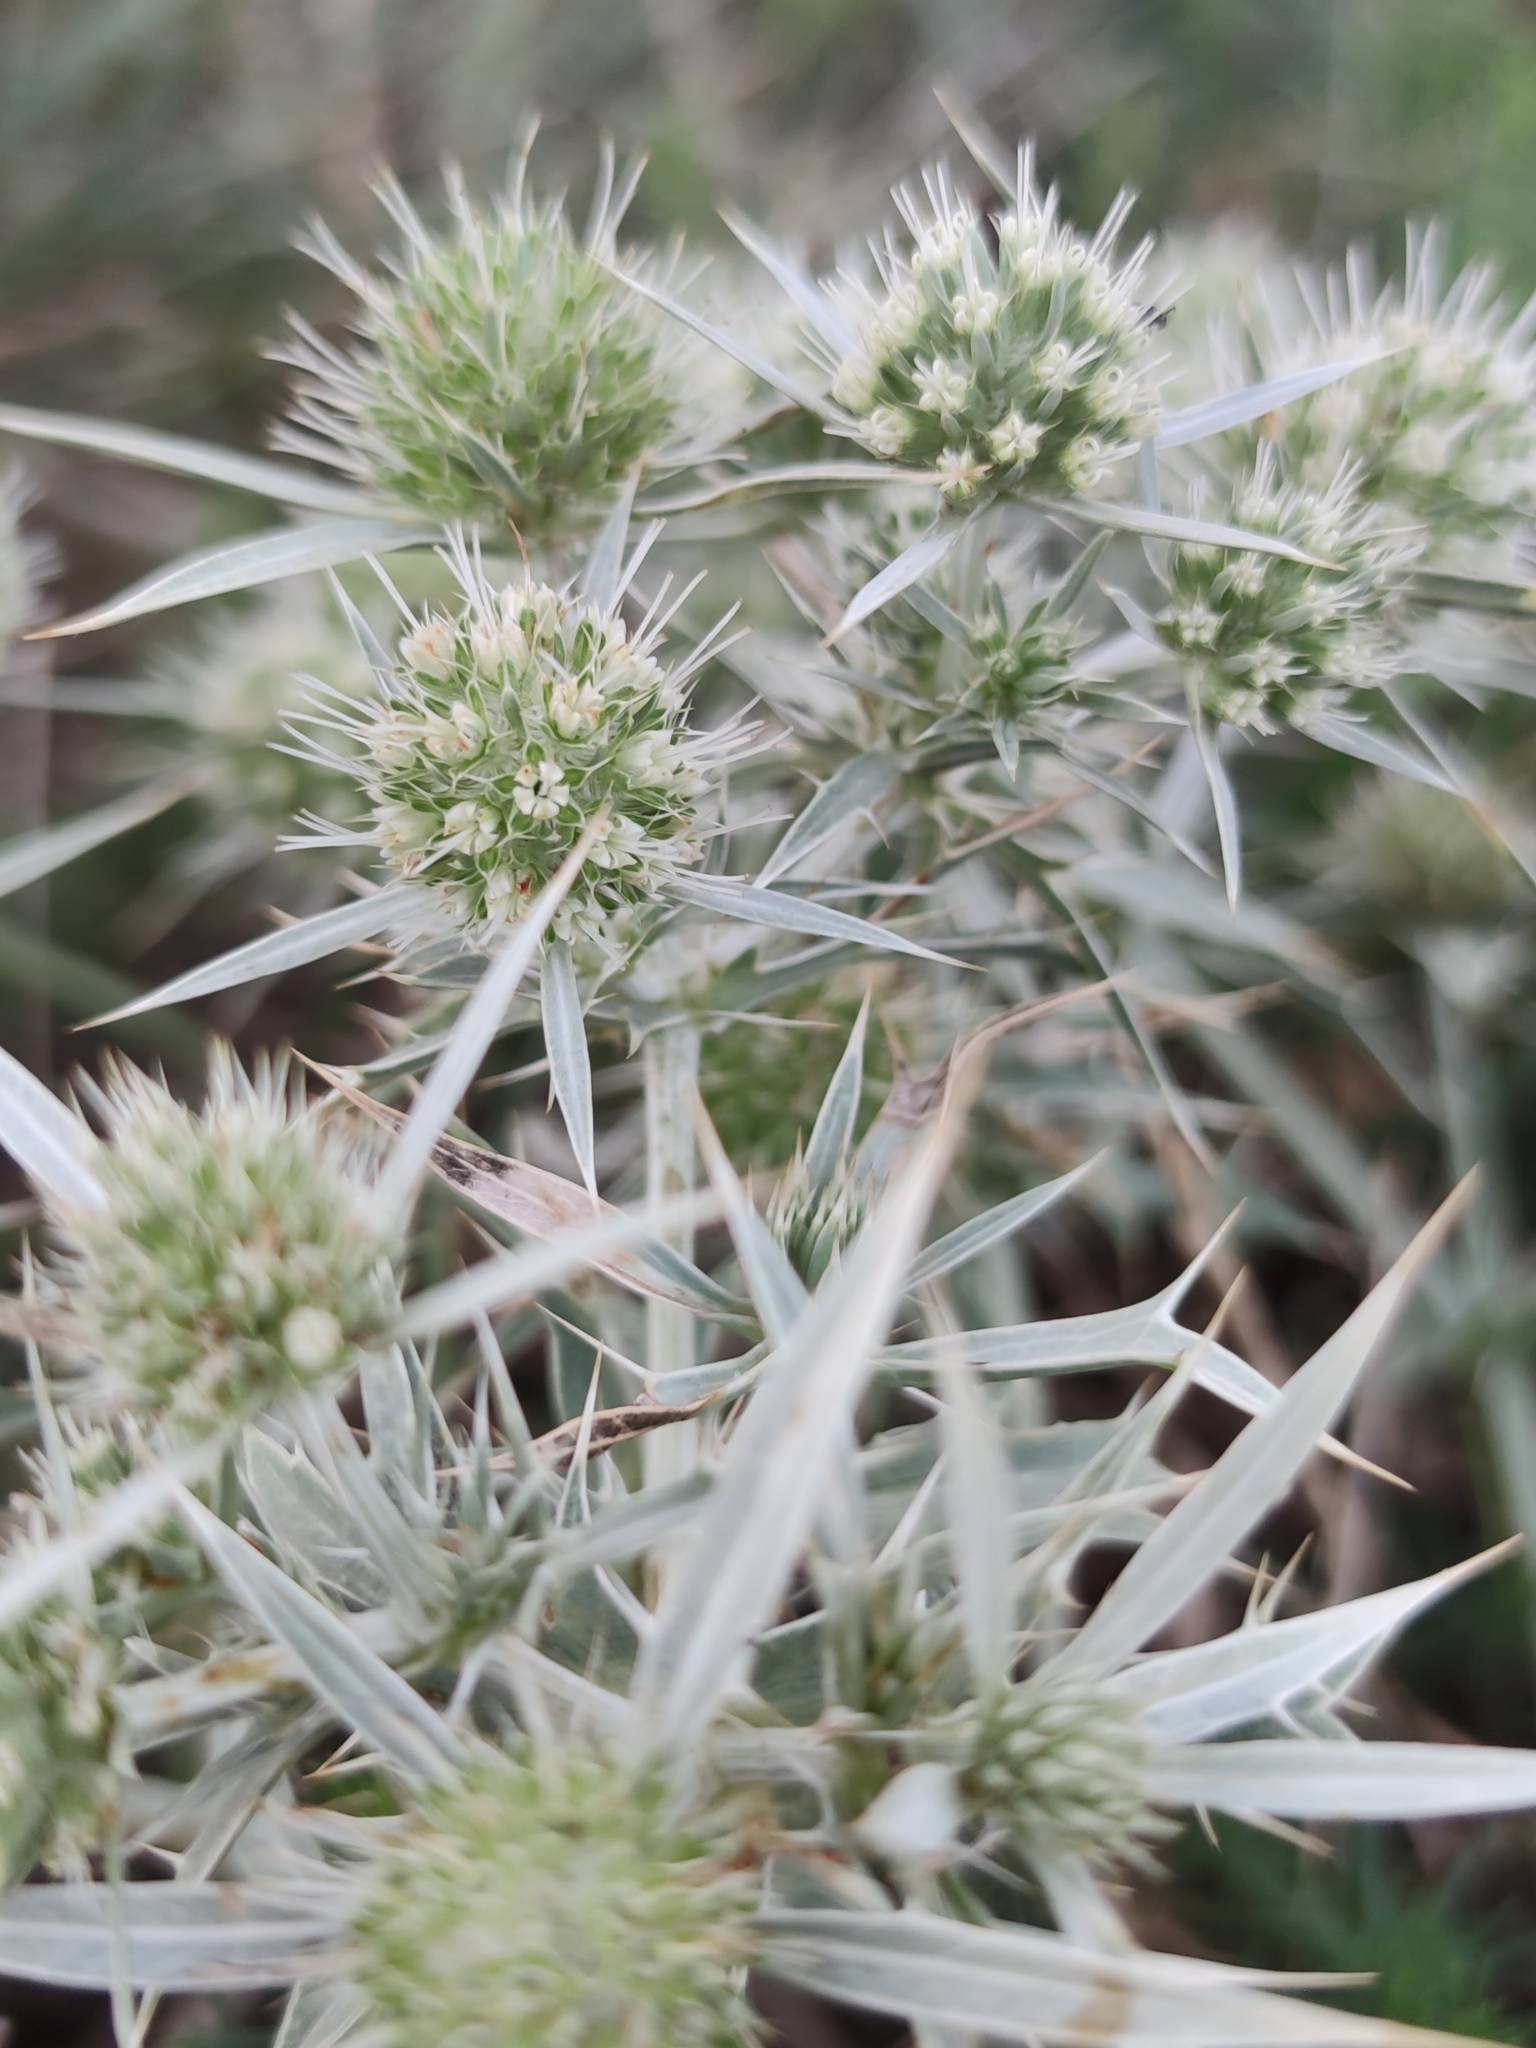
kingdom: Plantae
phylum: Tracheophyta
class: Magnoliopsida
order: Apiales
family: Apiaceae
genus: Eryngium
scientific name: Eryngium campestre
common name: Field eryngo
